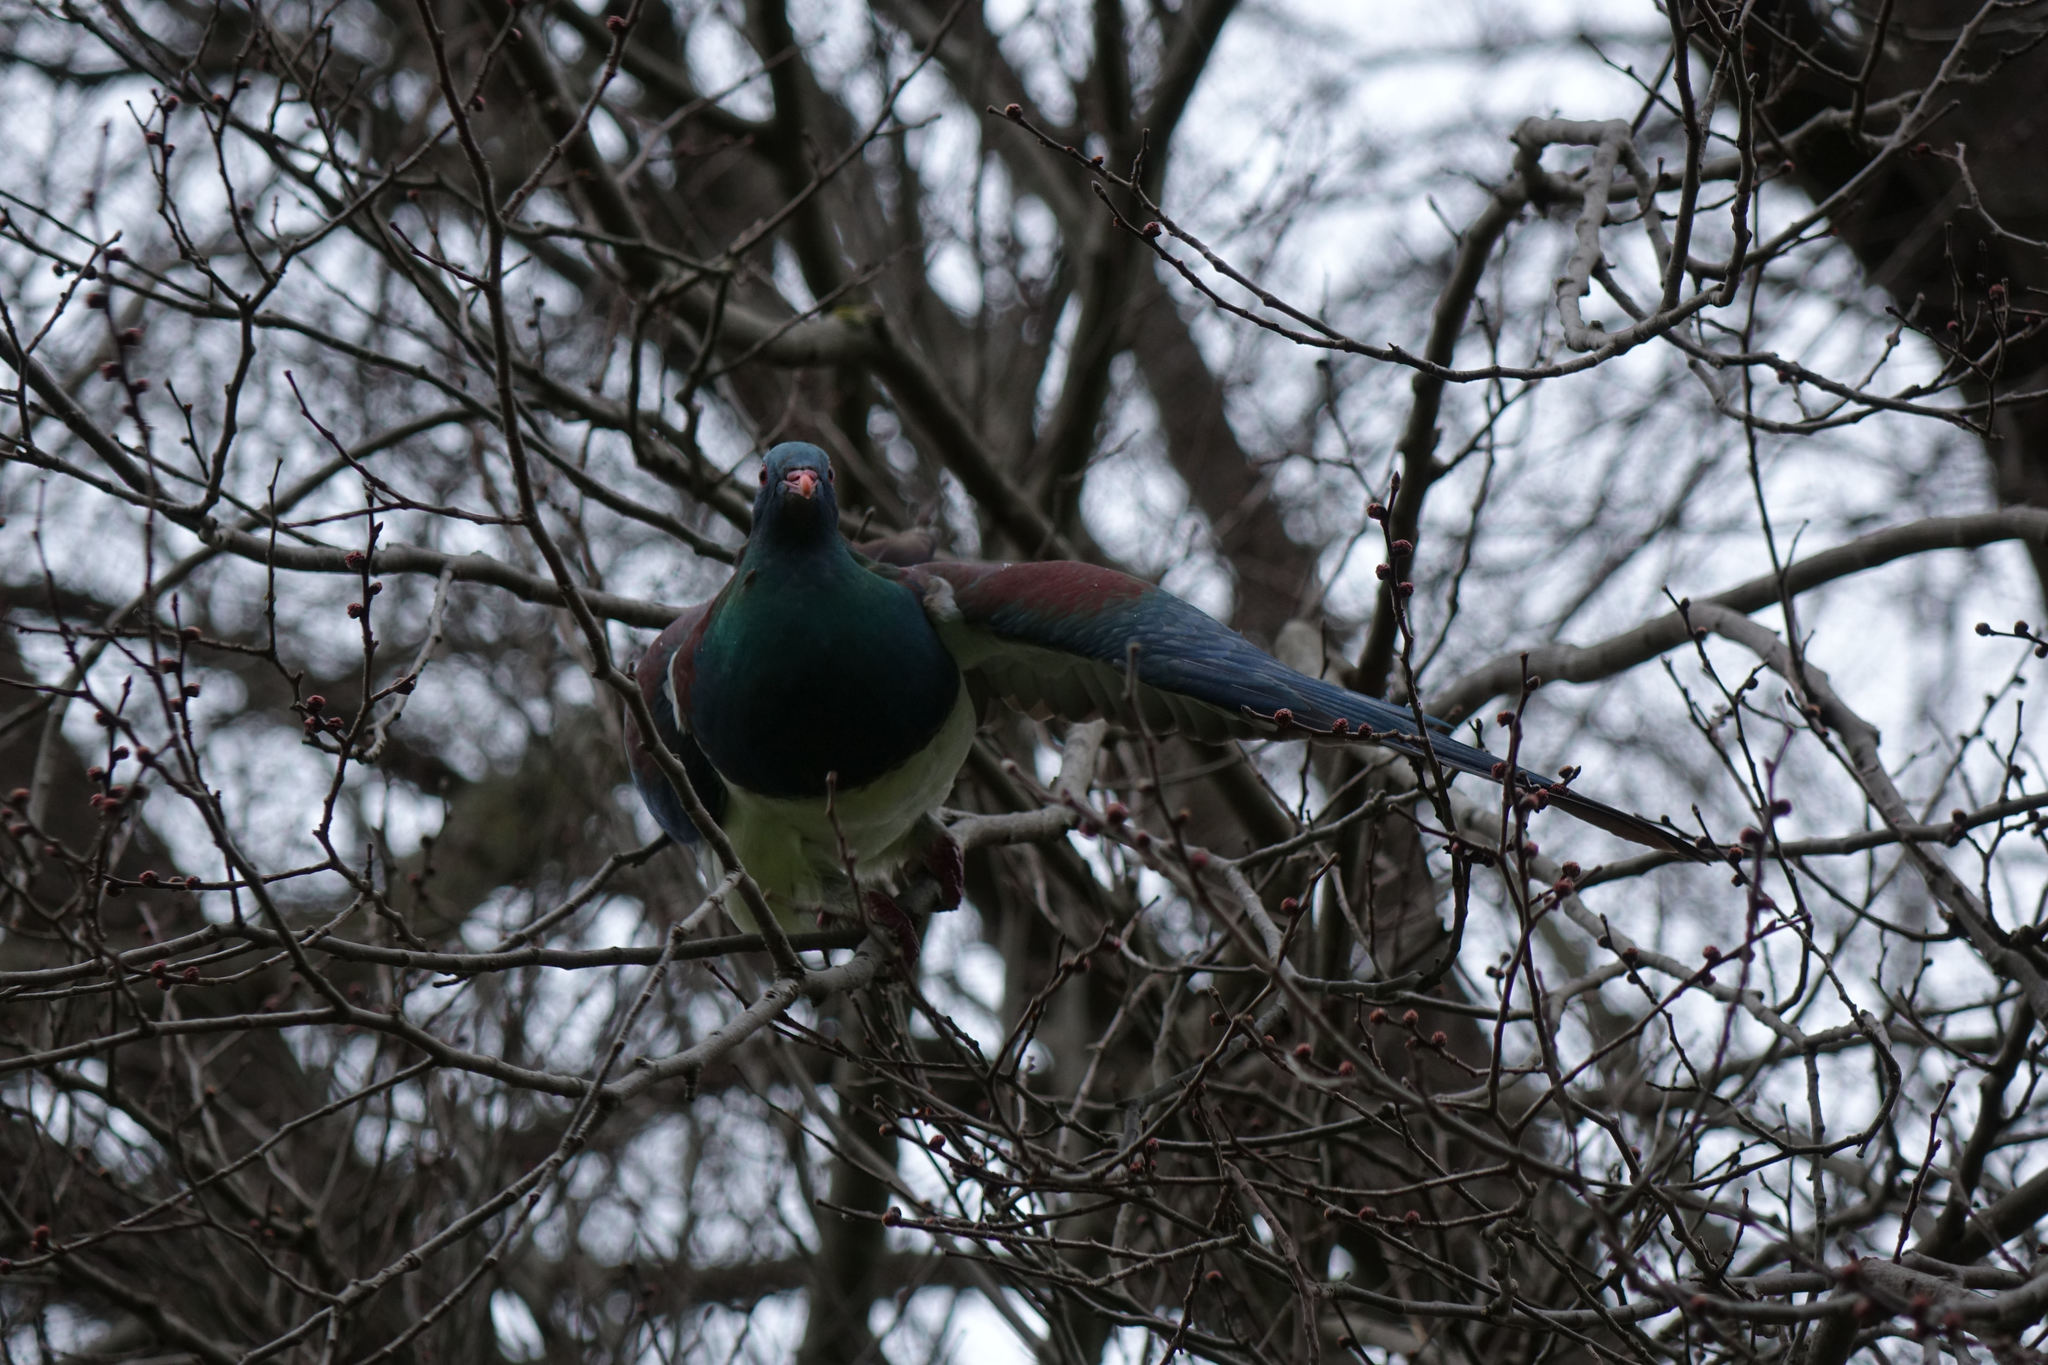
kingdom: Animalia
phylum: Chordata
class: Aves
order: Columbiformes
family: Columbidae
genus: Hemiphaga
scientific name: Hemiphaga novaeseelandiae
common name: New zealand pigeon
